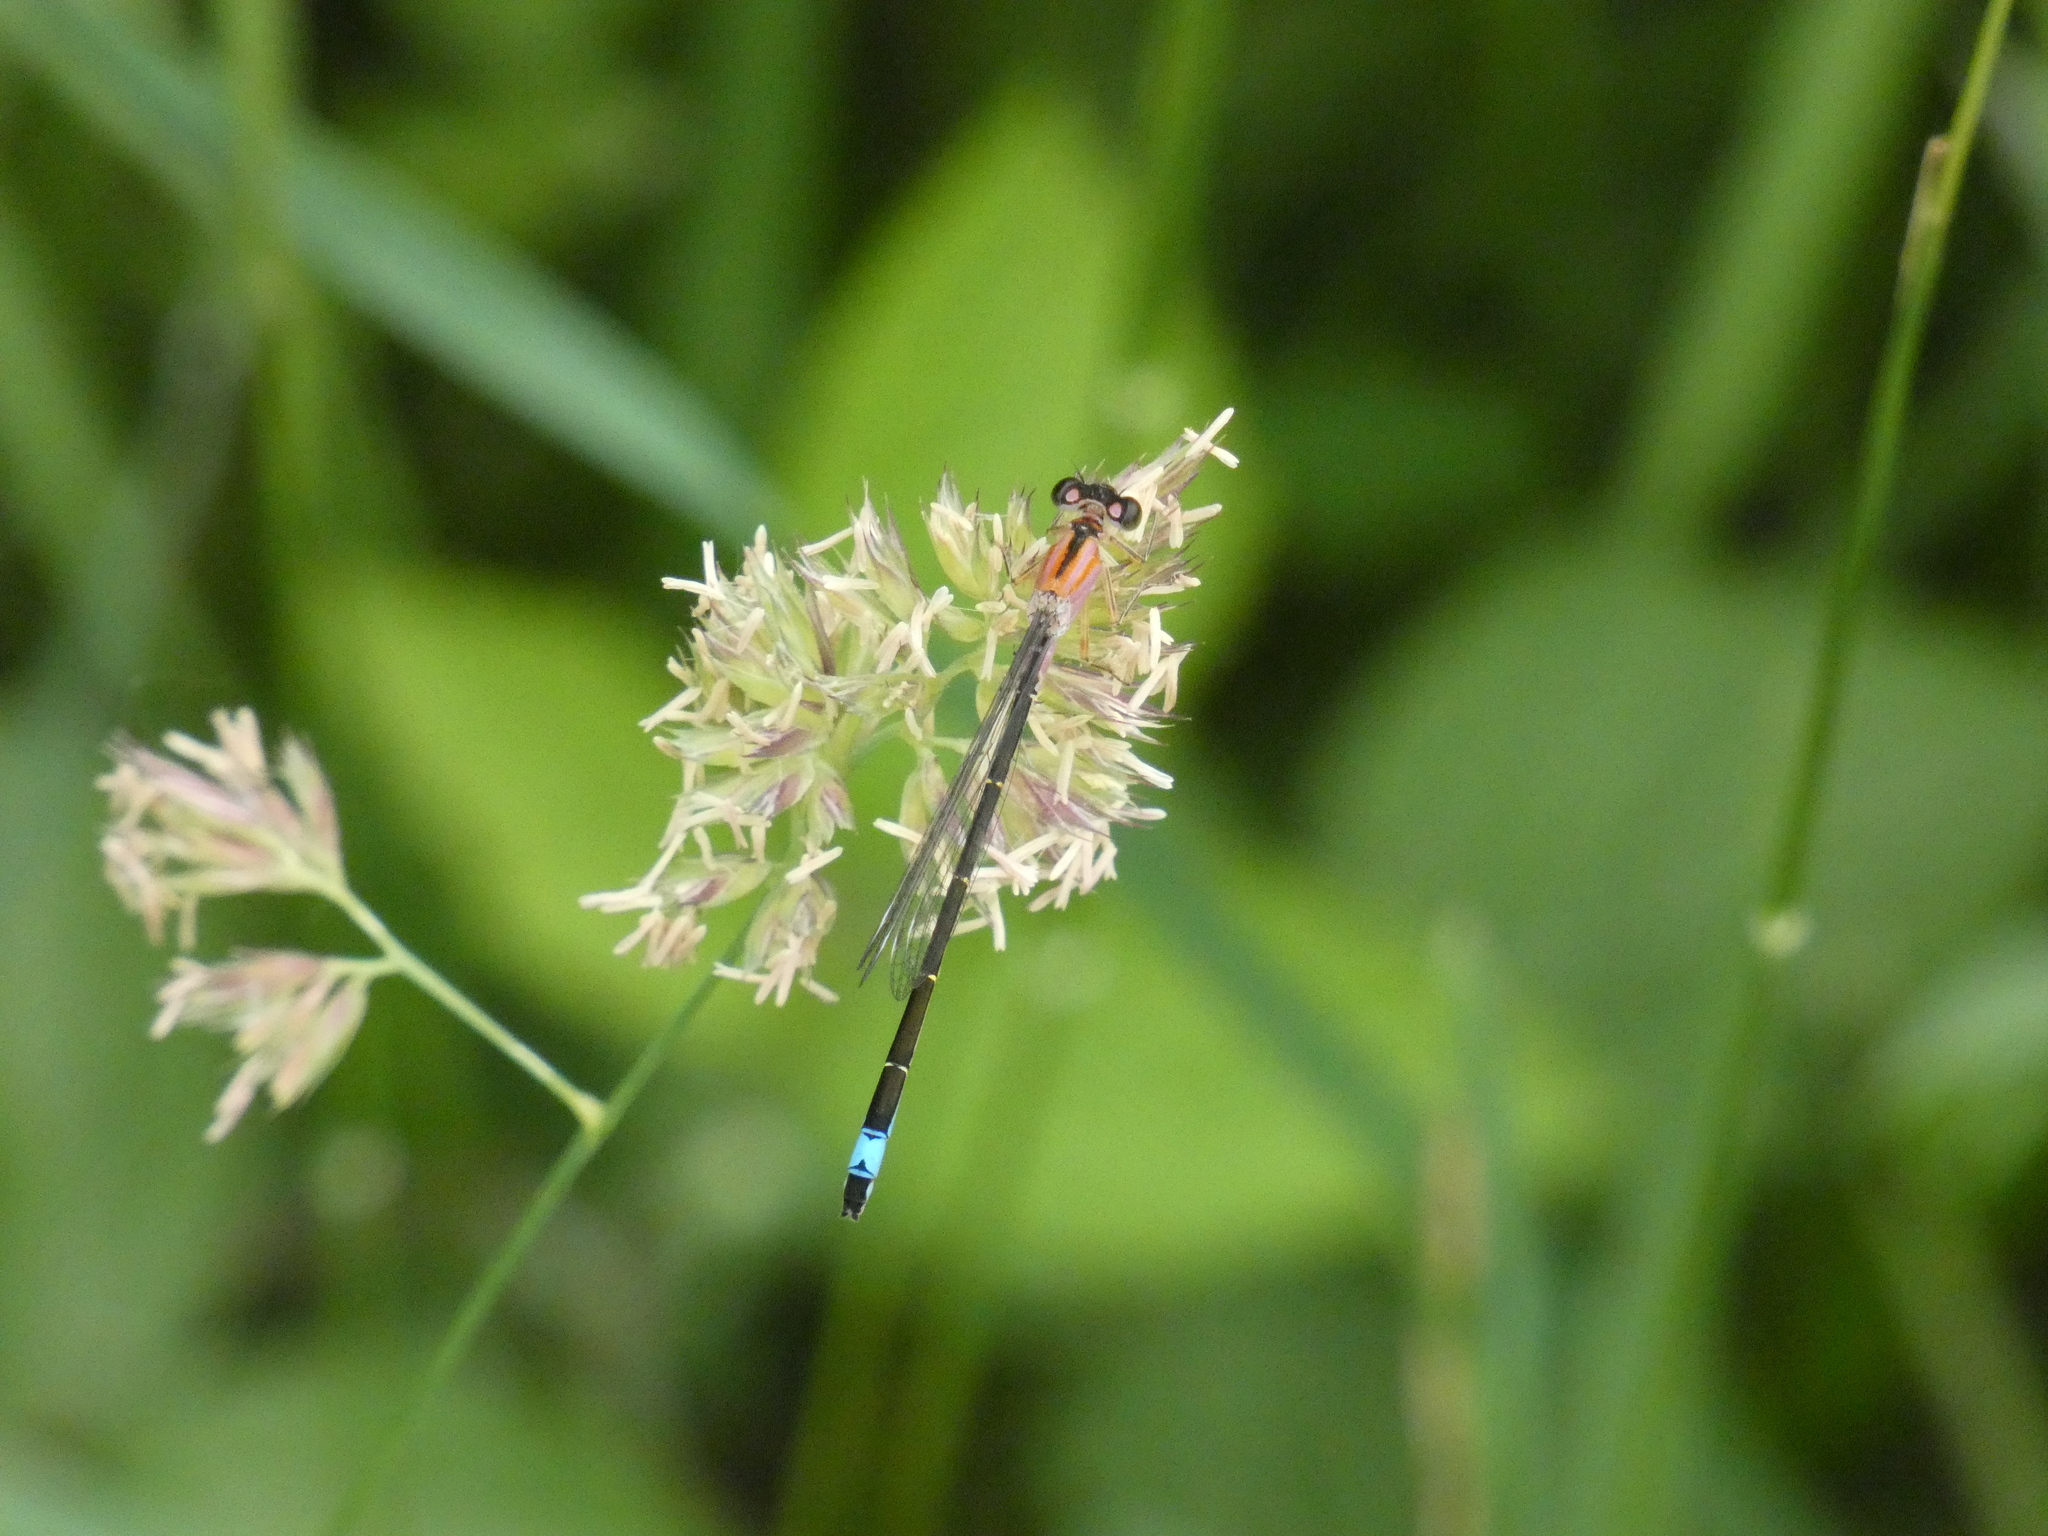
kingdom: Animalia
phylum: Arthropoda
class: Insecta
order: Odonata
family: Coenagrionidae
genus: Ischnura
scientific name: Ischnura elegans
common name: Blue-tailed damselfly
